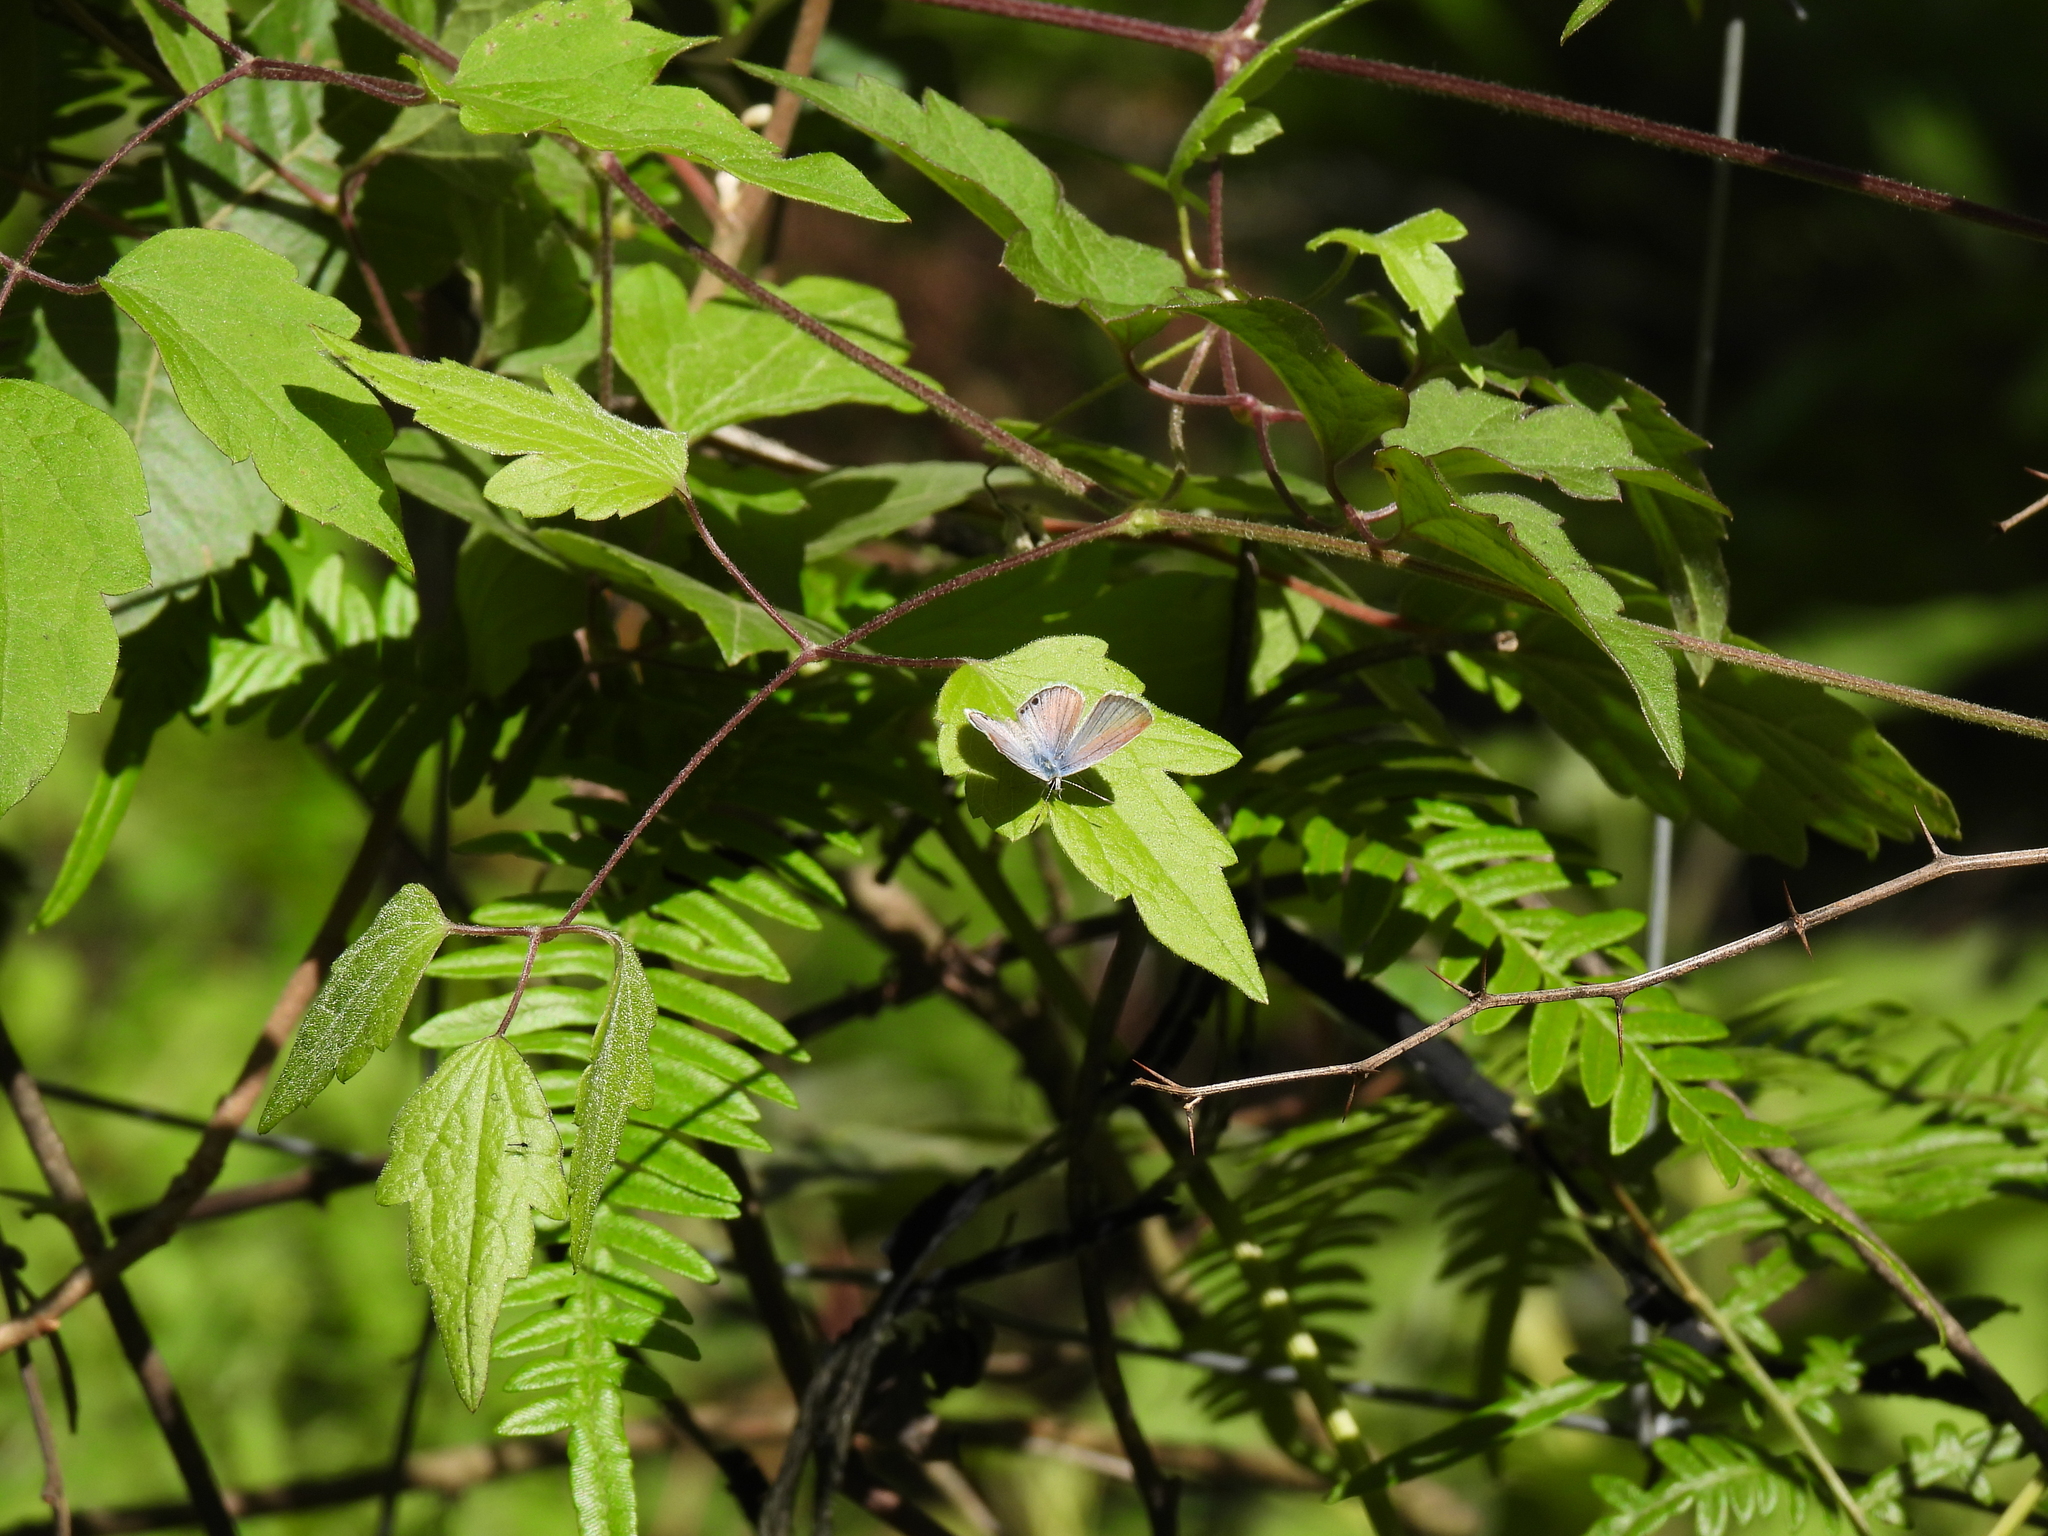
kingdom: Animalia
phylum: Arthropoda
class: Insecta
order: Lepidoptera
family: Lycaenidae
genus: Echinargus
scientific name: Echinargus isola
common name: Reakirt's blue
